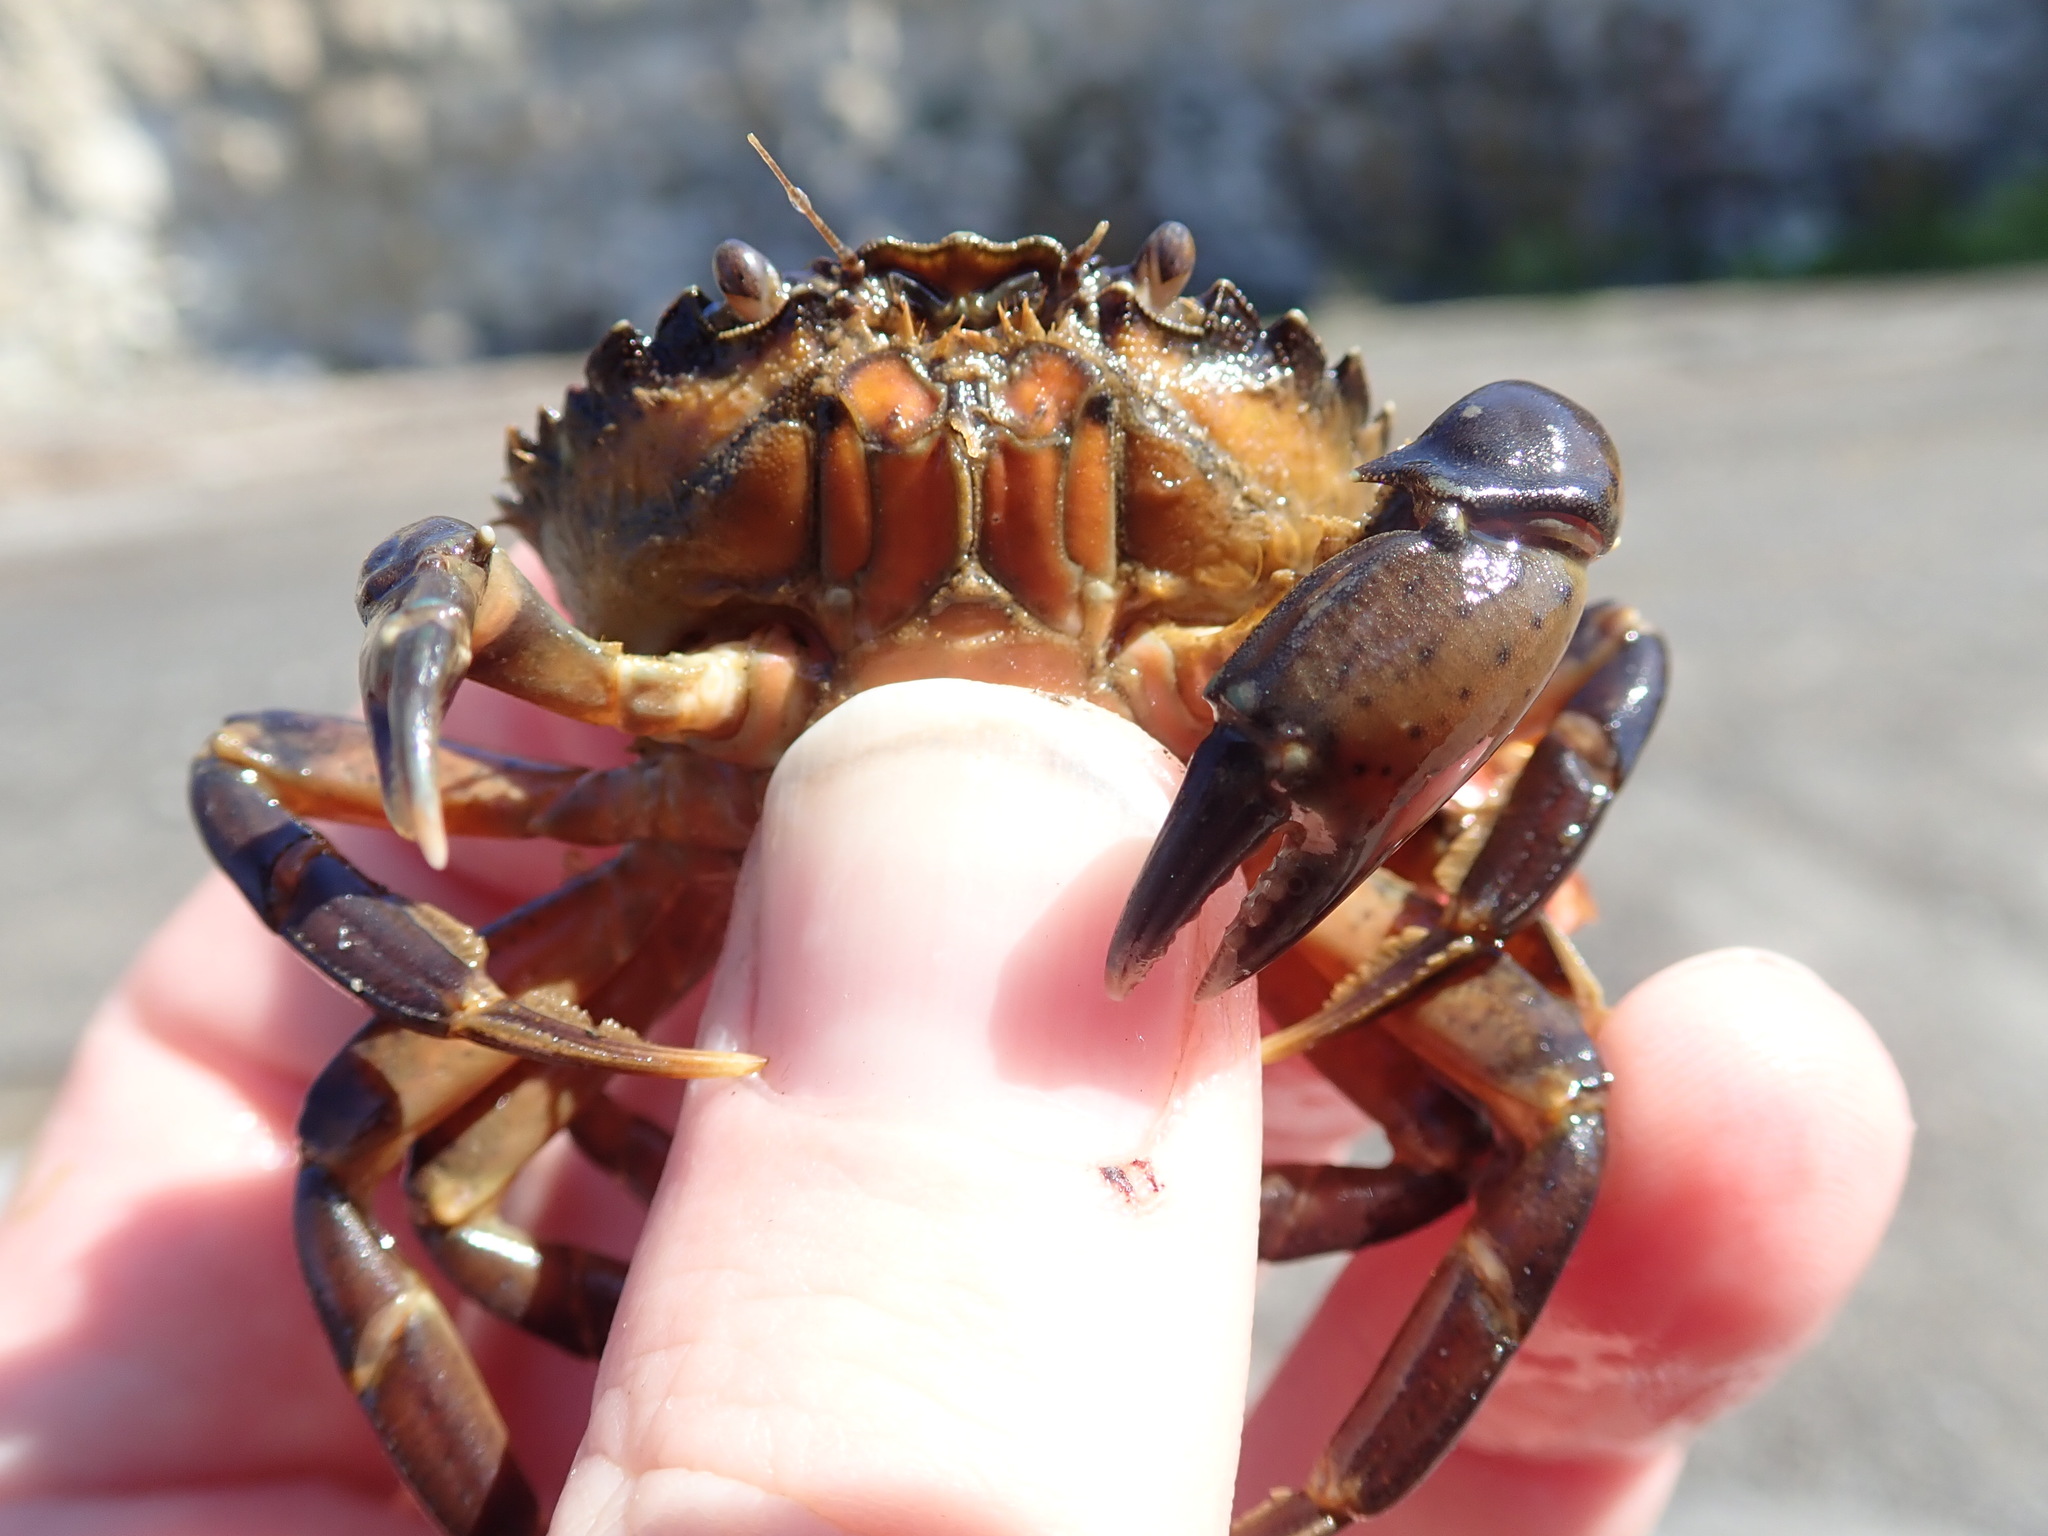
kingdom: Animalia
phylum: Arthropoda
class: Malacostraca
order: Decapoda
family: Carcinidae
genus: Carcinus
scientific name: Carcinus maenas
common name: European green crab
